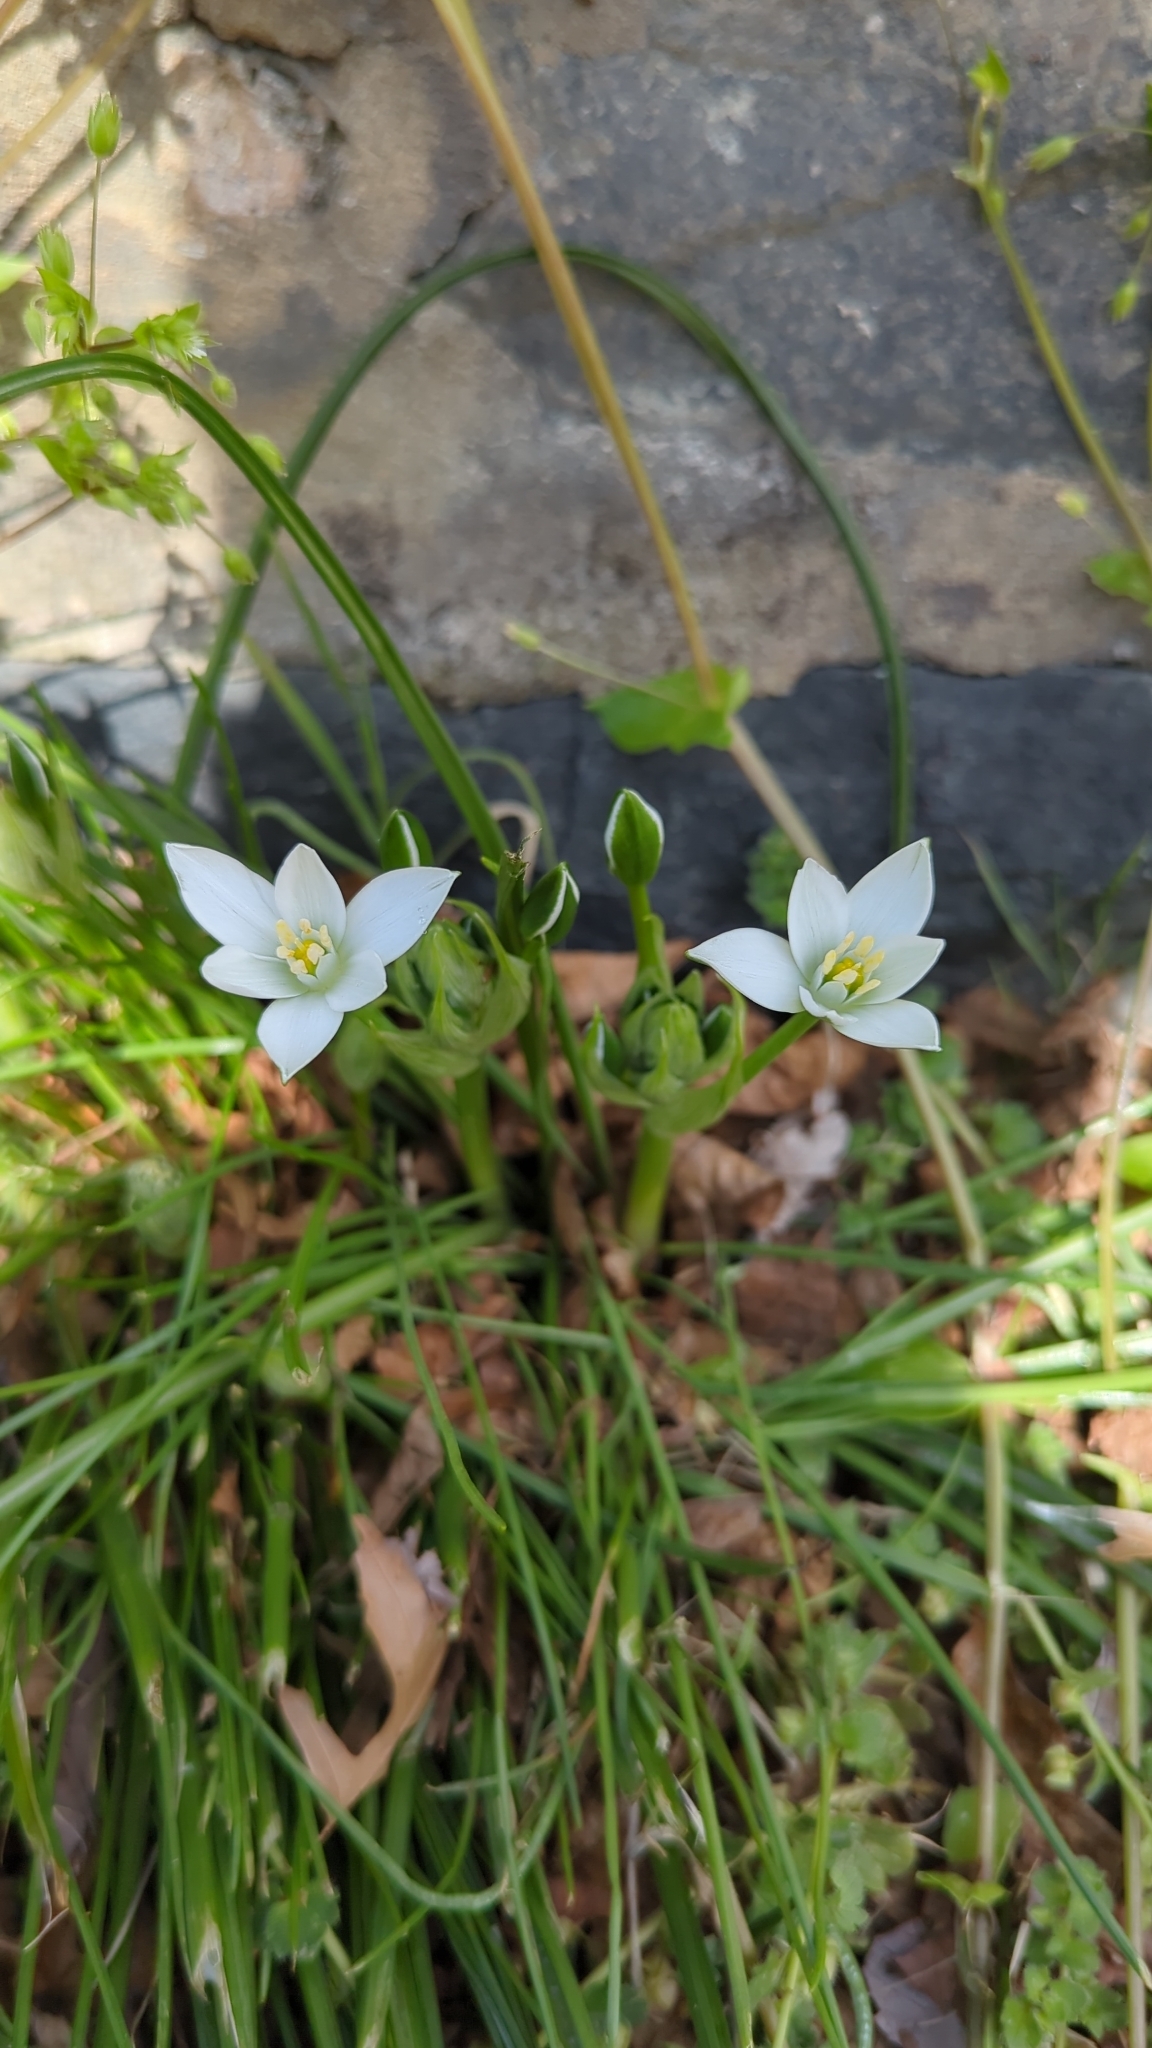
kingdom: Plantae
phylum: Tracheophyta
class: Liliopsida
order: Asparagales
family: Asparagaceae
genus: Ornithogalum
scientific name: Ornithogalum umbellatum
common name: Garden star-of-bethlehem
